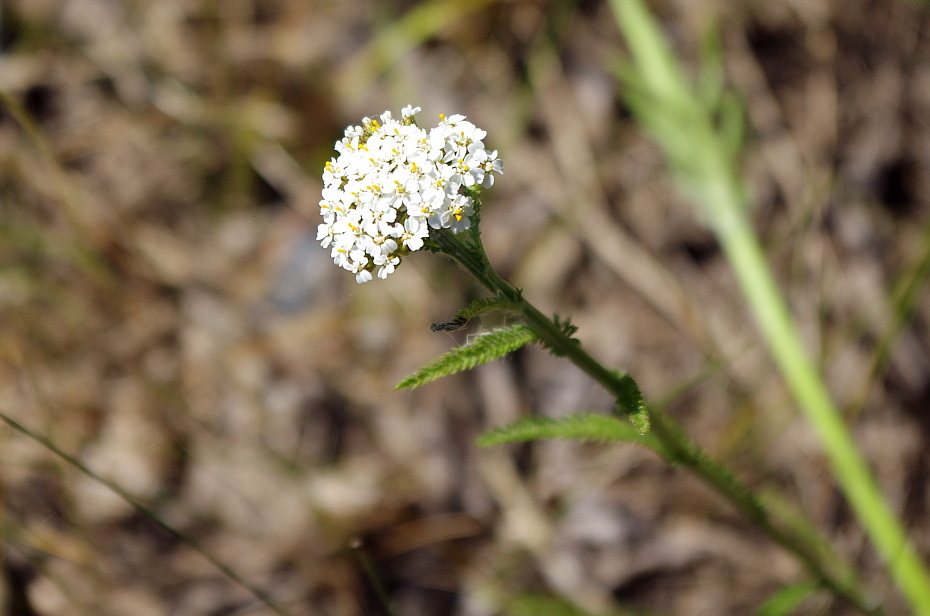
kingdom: Plantae
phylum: Tracheophyta
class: Magnoliopsida
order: Asterales
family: Asteraceae
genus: Achillea
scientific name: Achillea millefolium
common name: Yarrow
